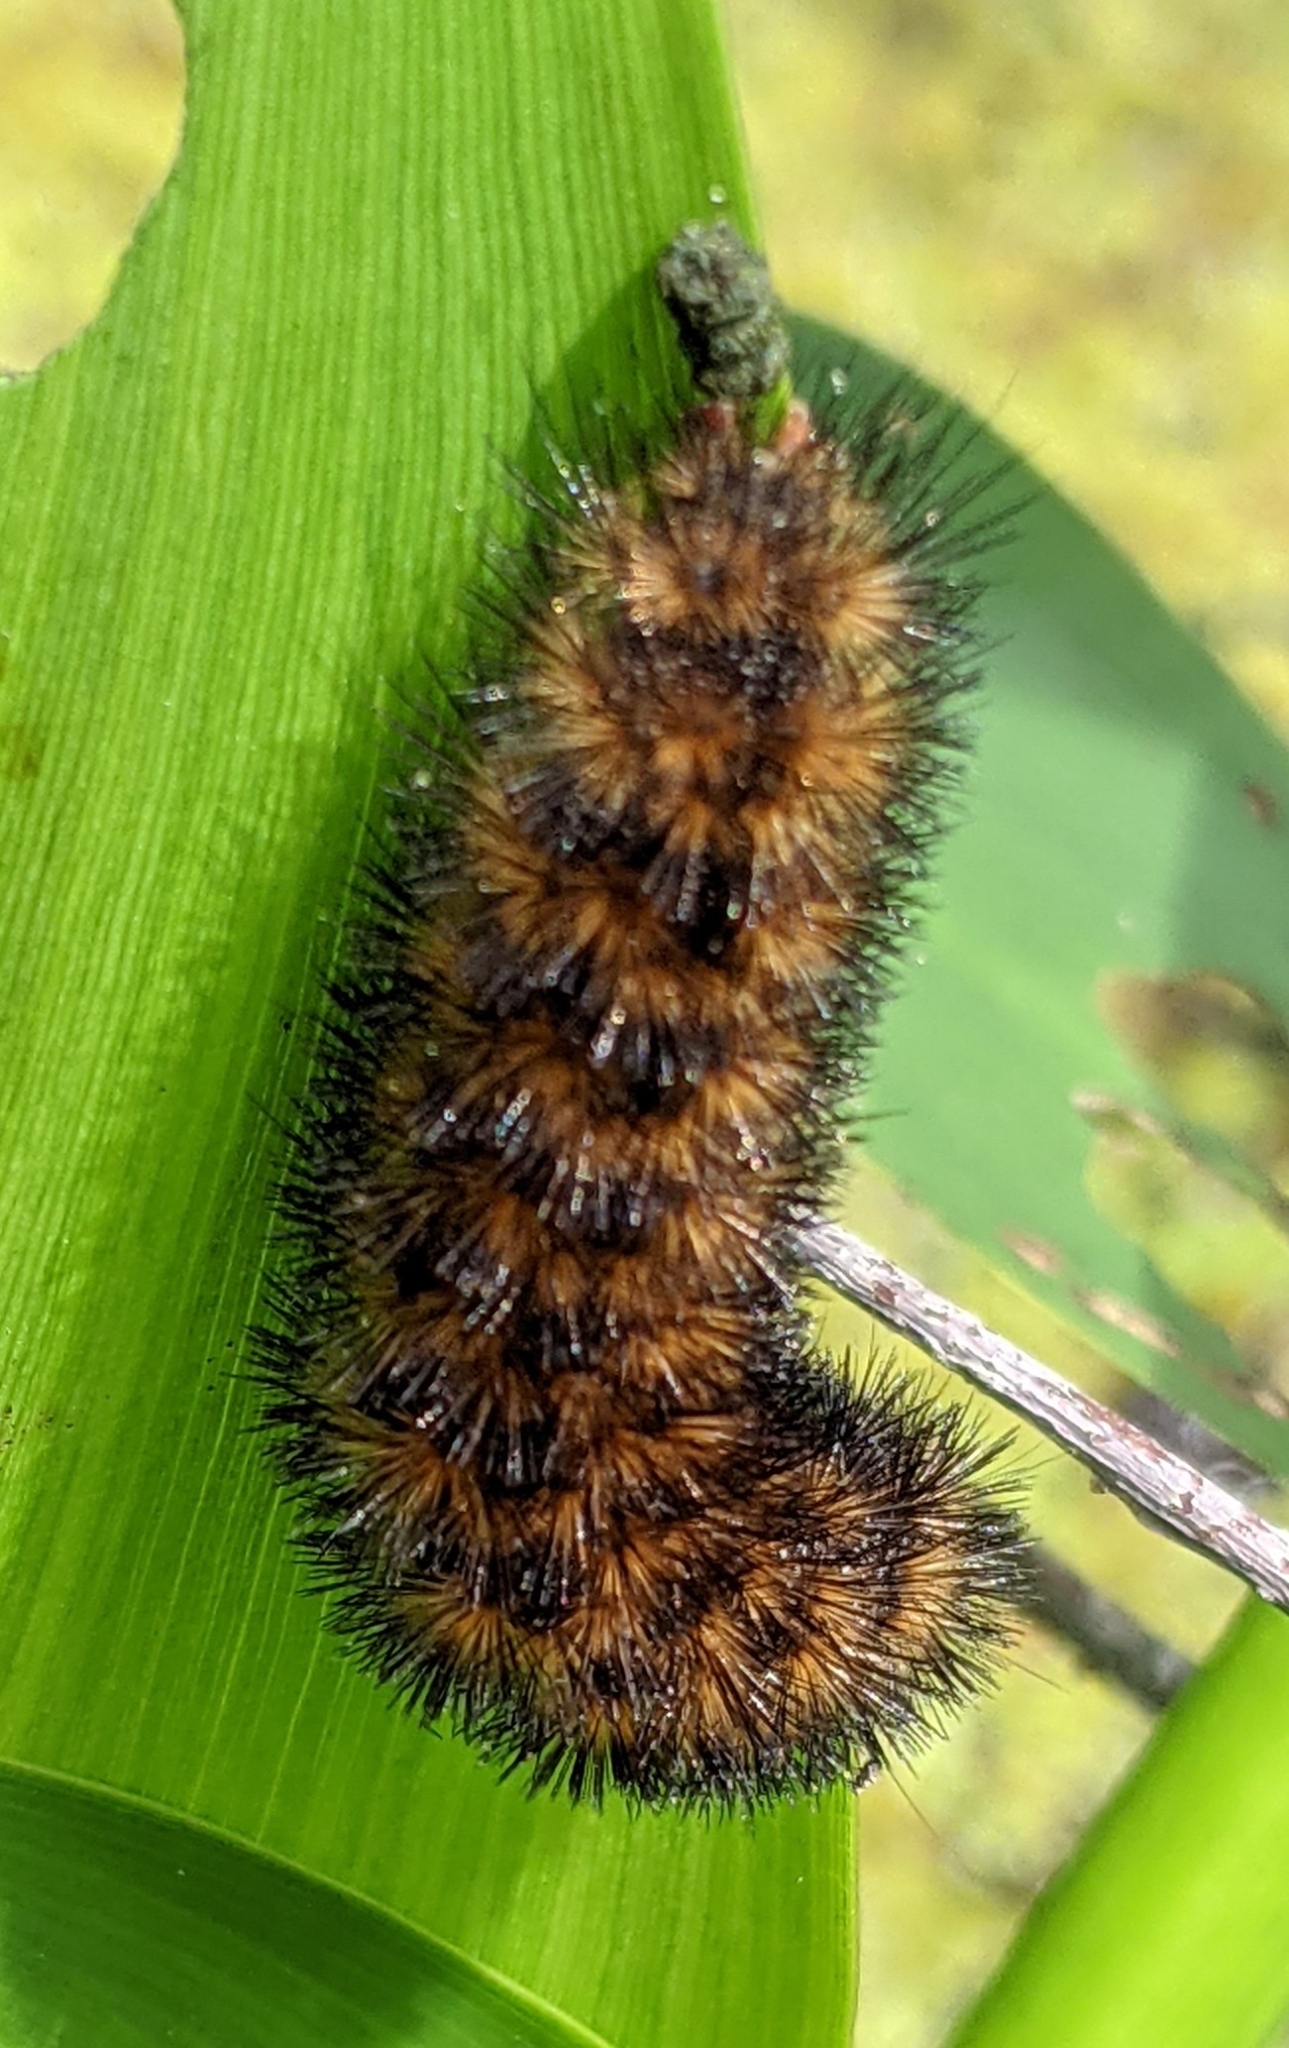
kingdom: Animalia
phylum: Arthropoda
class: Insecta
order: Lepidoptera
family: Erebidae
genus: Pyrrharctia
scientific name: Pyrrharctia isabella
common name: Isabella tiger moth
